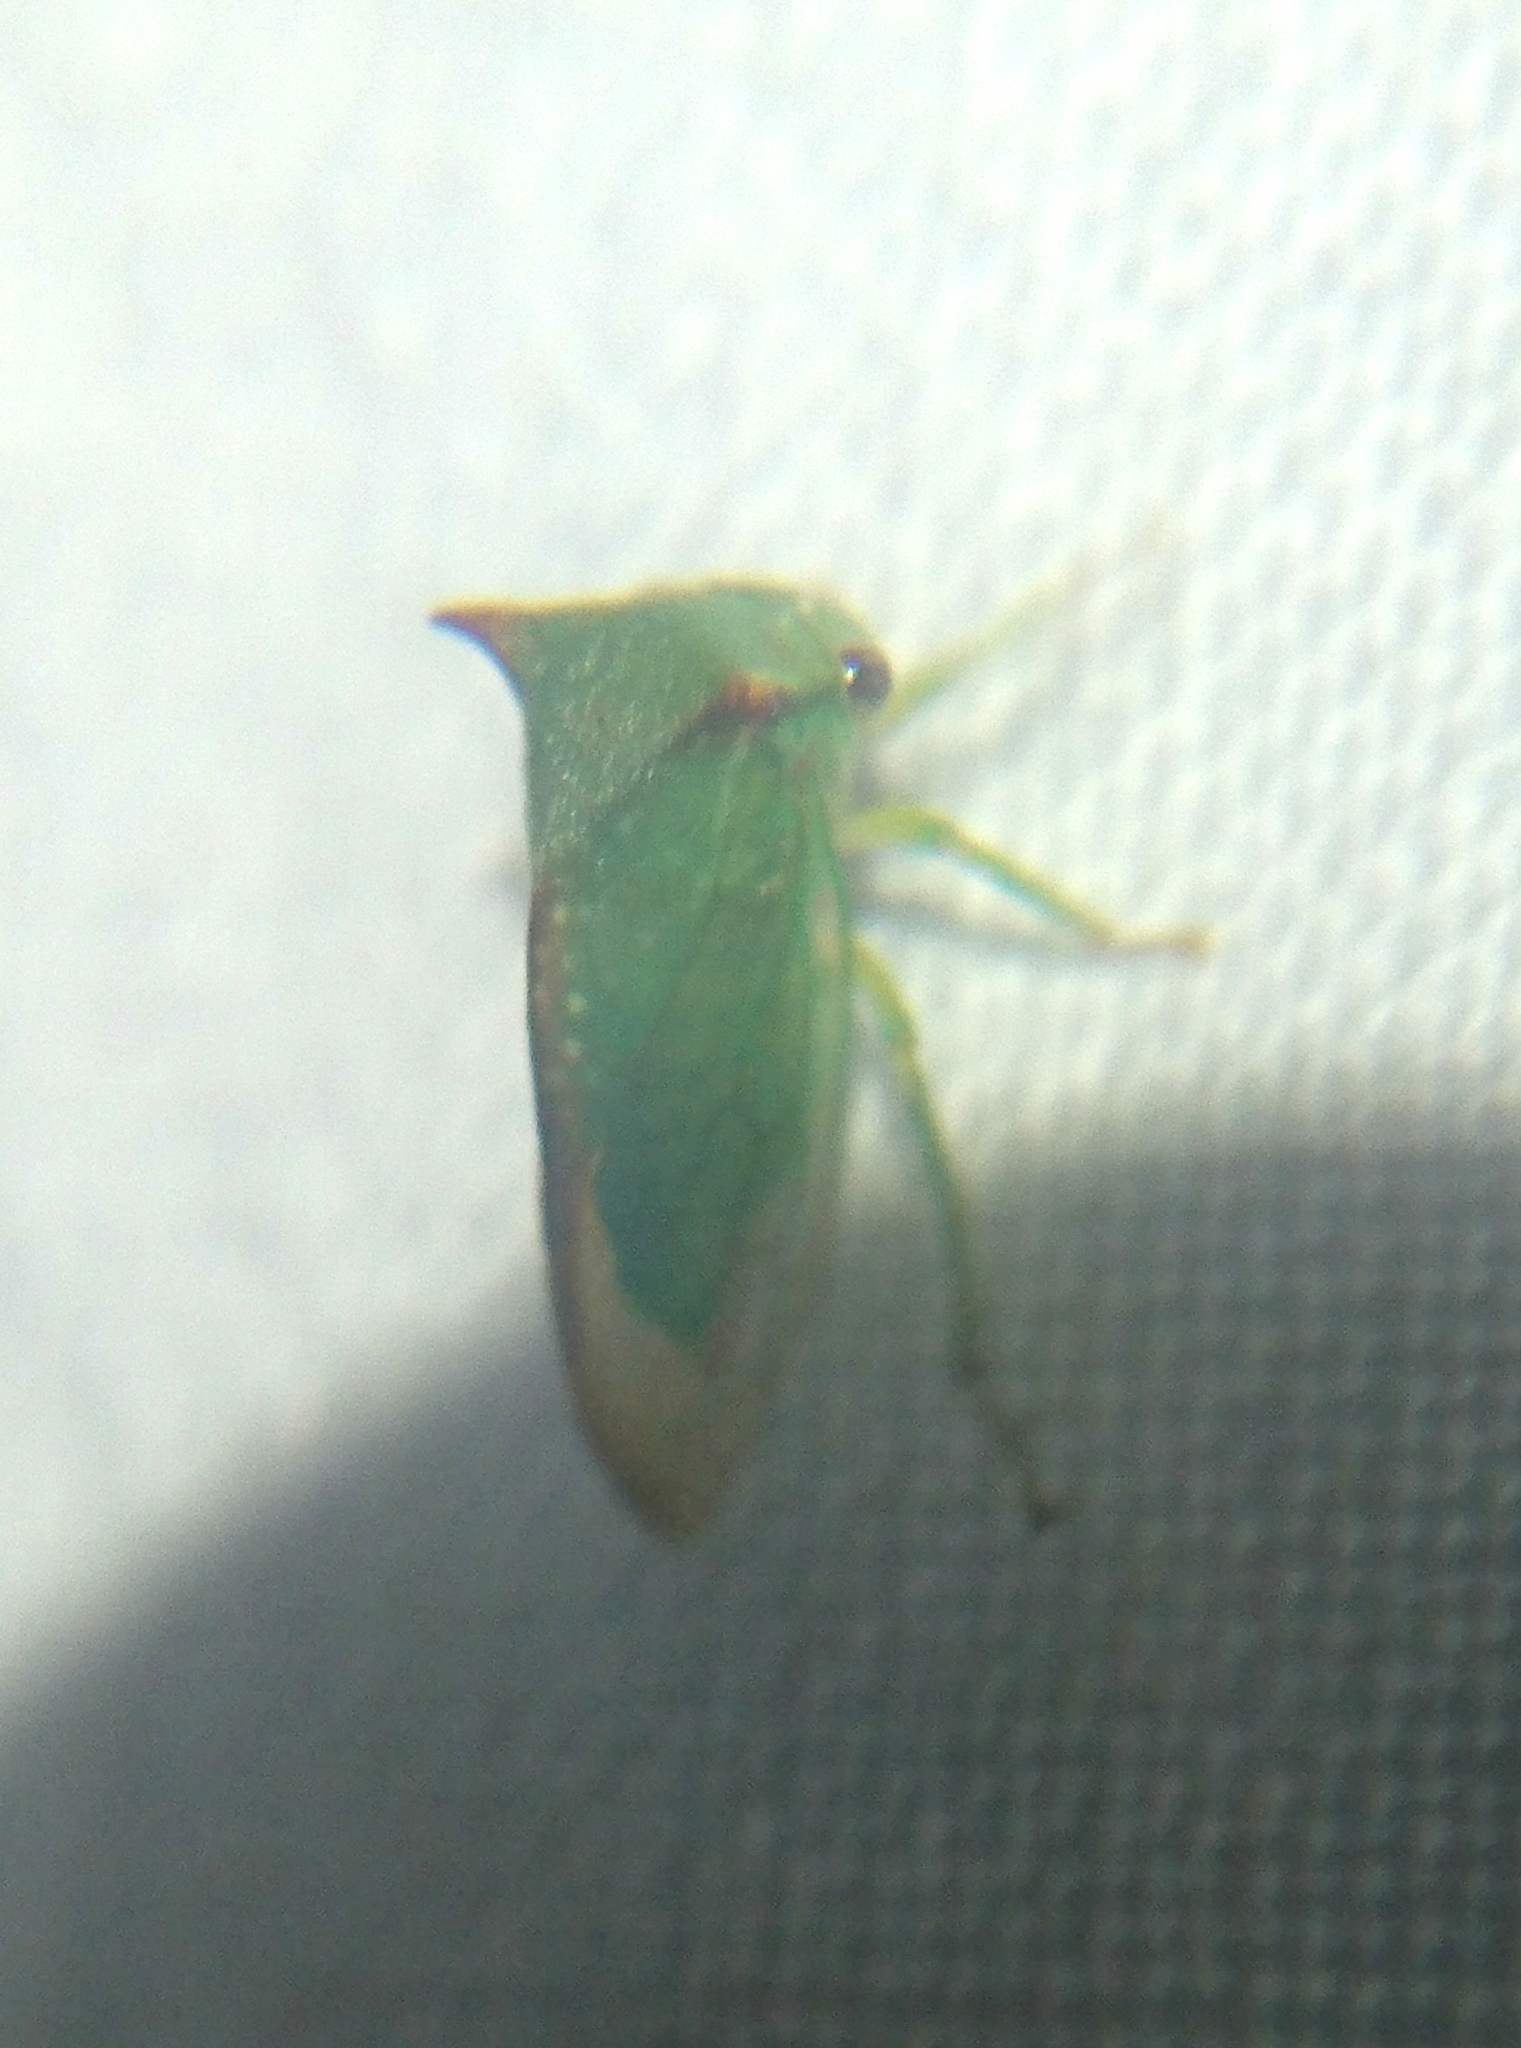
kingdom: Animalia
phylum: Arthropoda
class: Insecta
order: Hemiptera
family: Membracidae
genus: Stictocephala
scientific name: Stictocephala militaris
